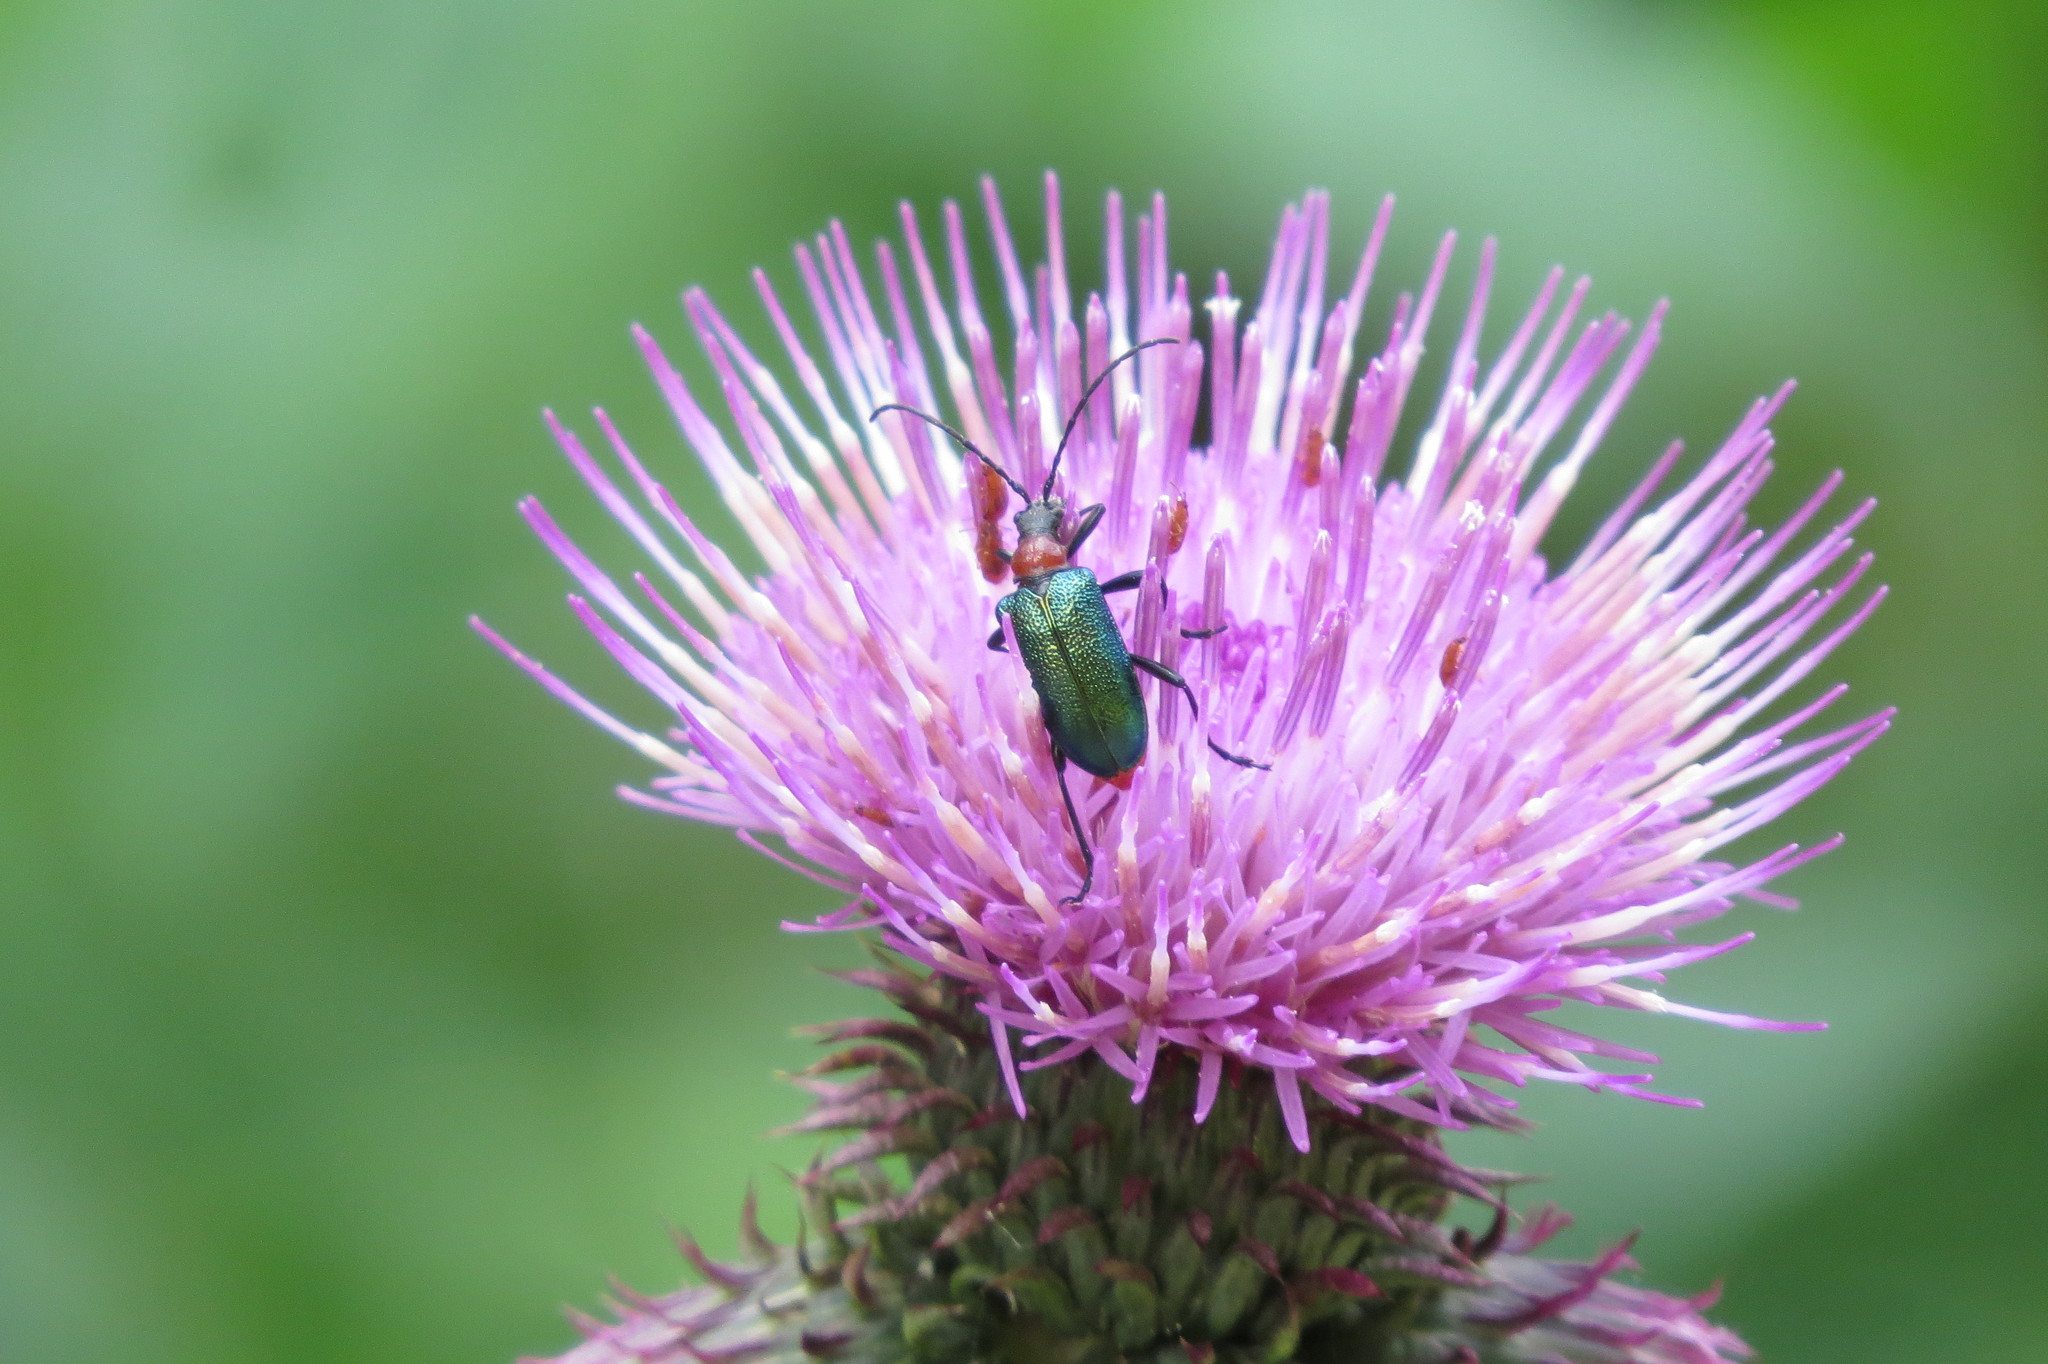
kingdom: Animalia
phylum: Arthropoda
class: Insecta
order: Coleoptera
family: Cerambycidae
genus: Gaurotes
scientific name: Gaurotes virginea
